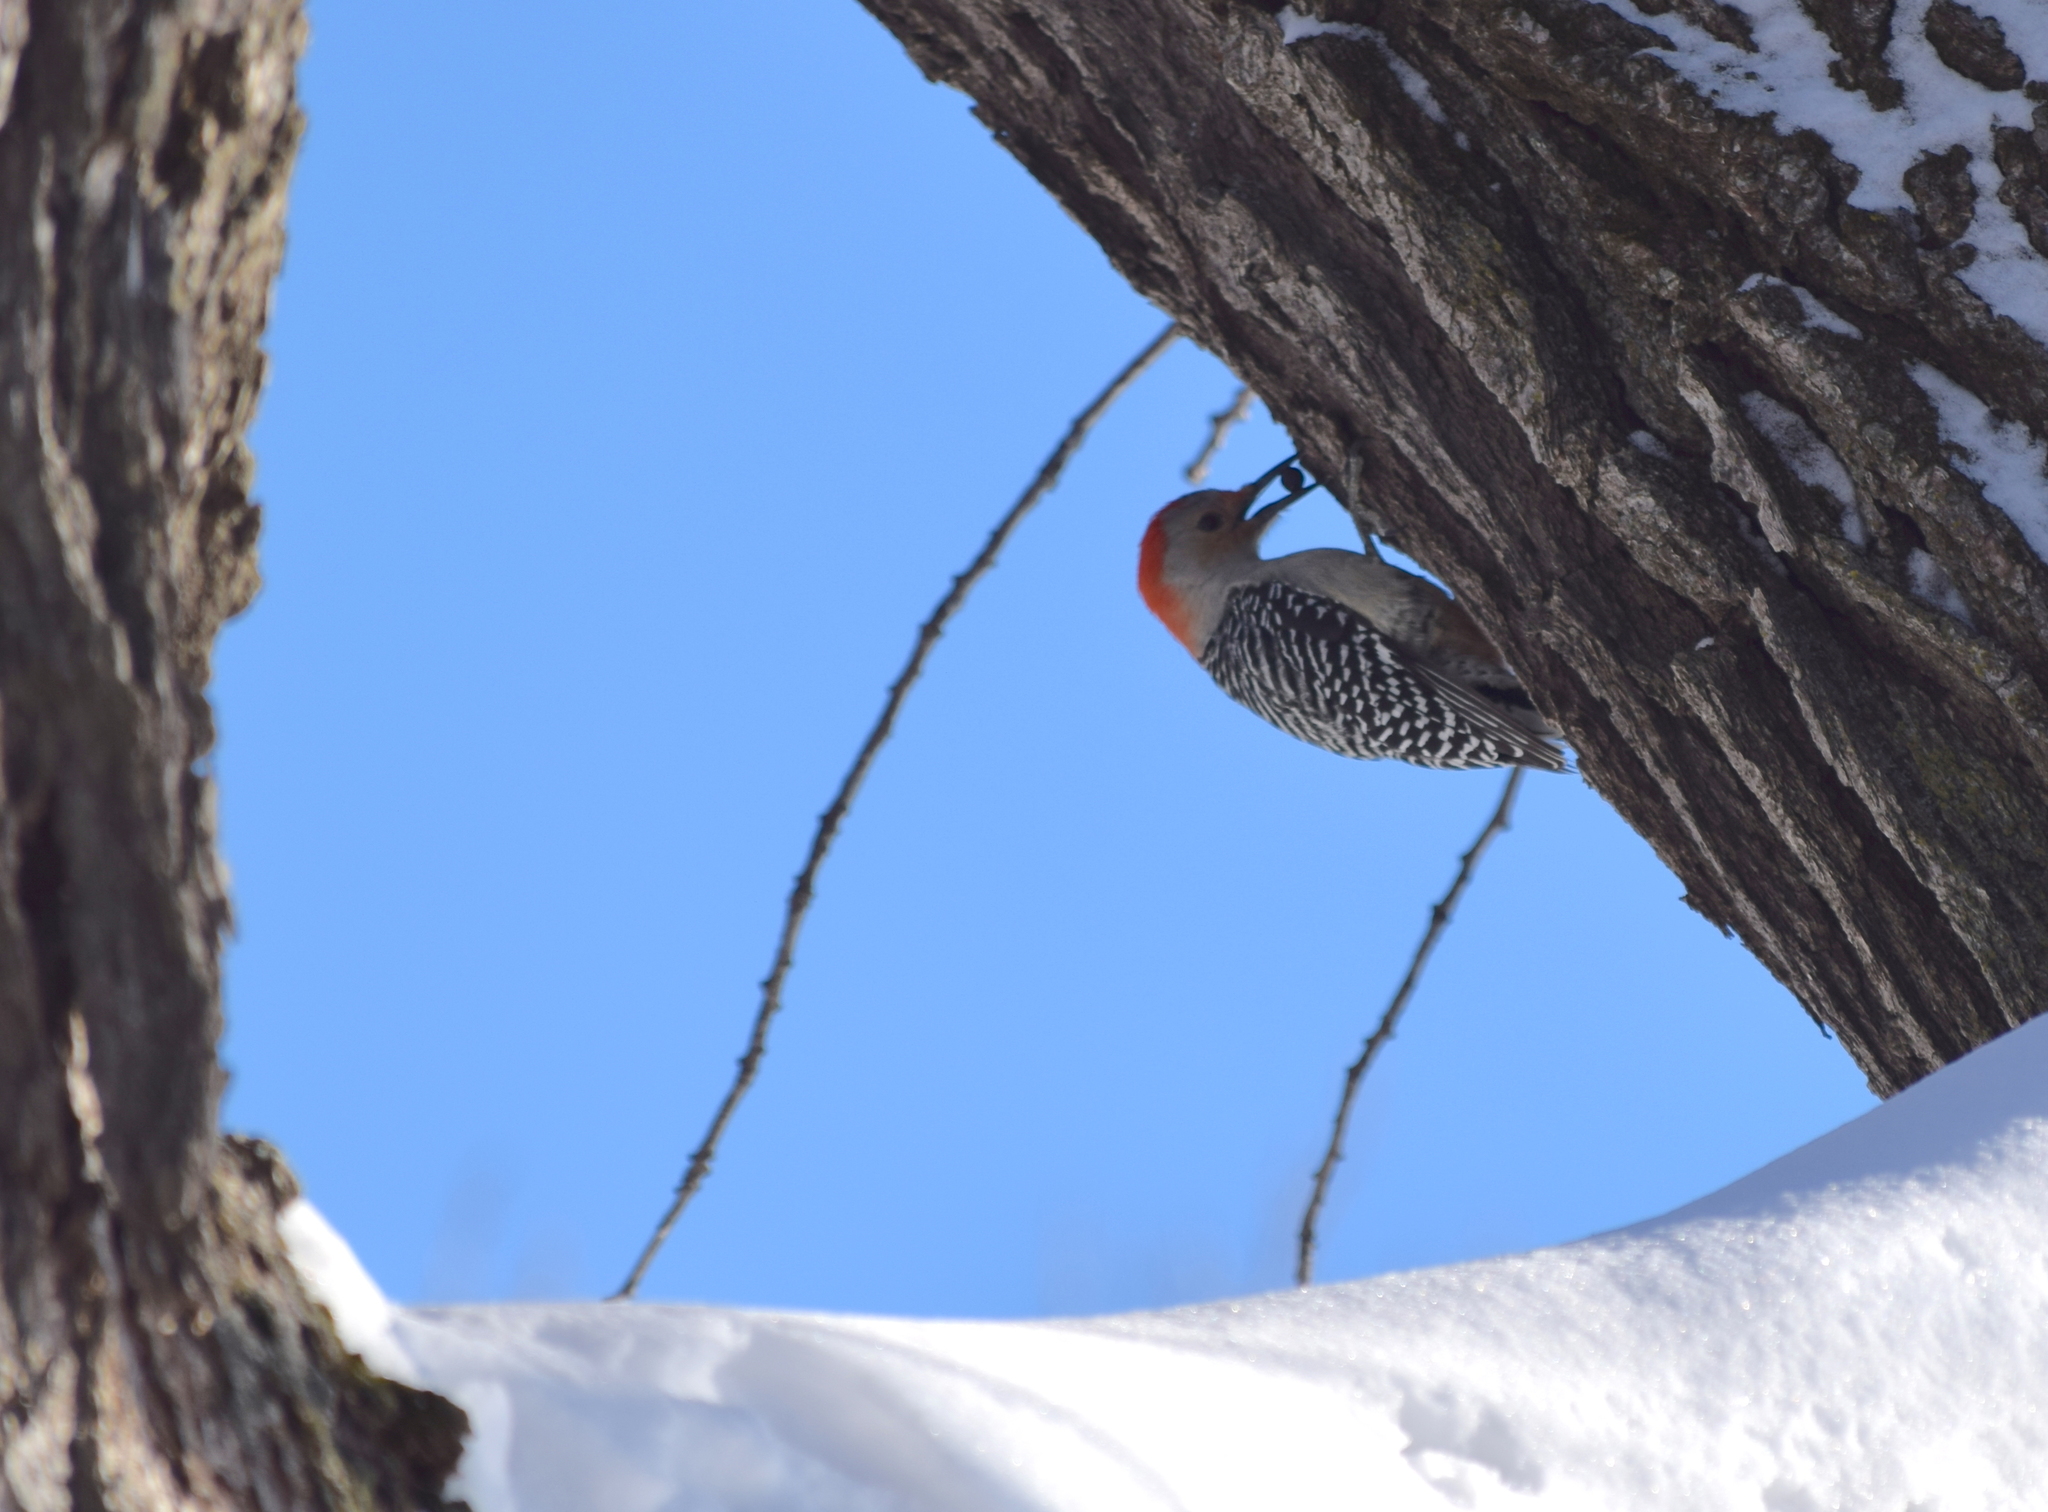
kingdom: Animalia
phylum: Chordata
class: Aves
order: Piciformes
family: Picidae
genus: Melanerpes
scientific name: Melanerpes carolinus
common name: Red-bellied woodpecker
